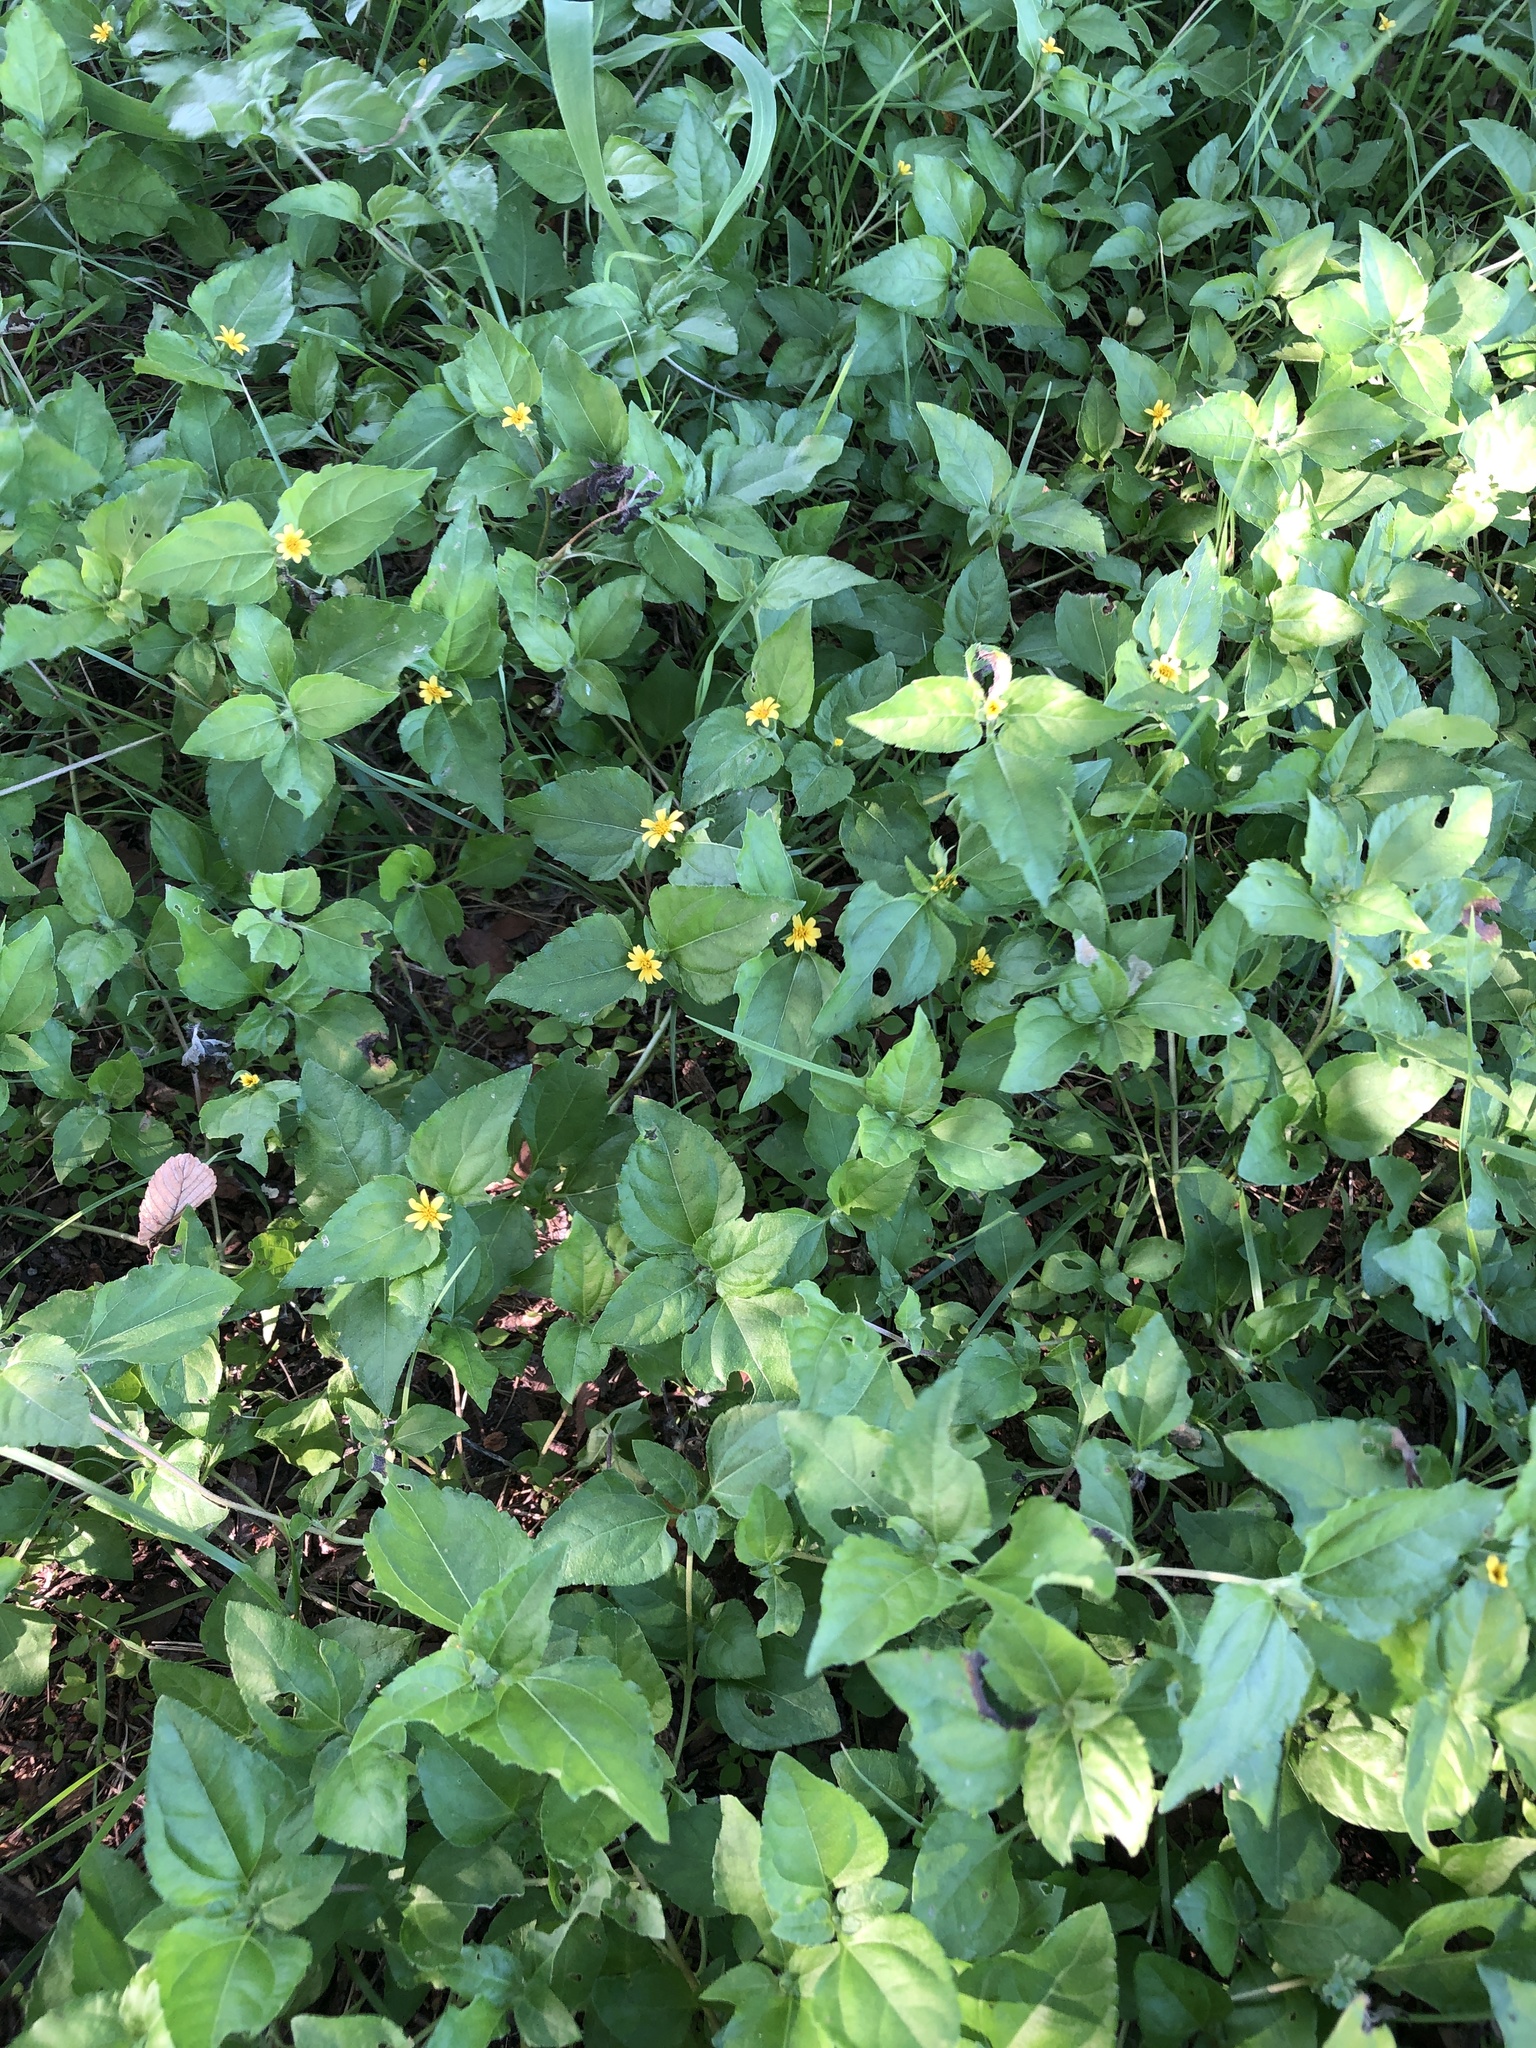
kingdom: Plantae
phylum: Tracheophyta
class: Magnoliopsida
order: Asterales
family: Asteraceae
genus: Calyptocarpus
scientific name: Calyptocarpus vialis
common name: Straggler daisy
